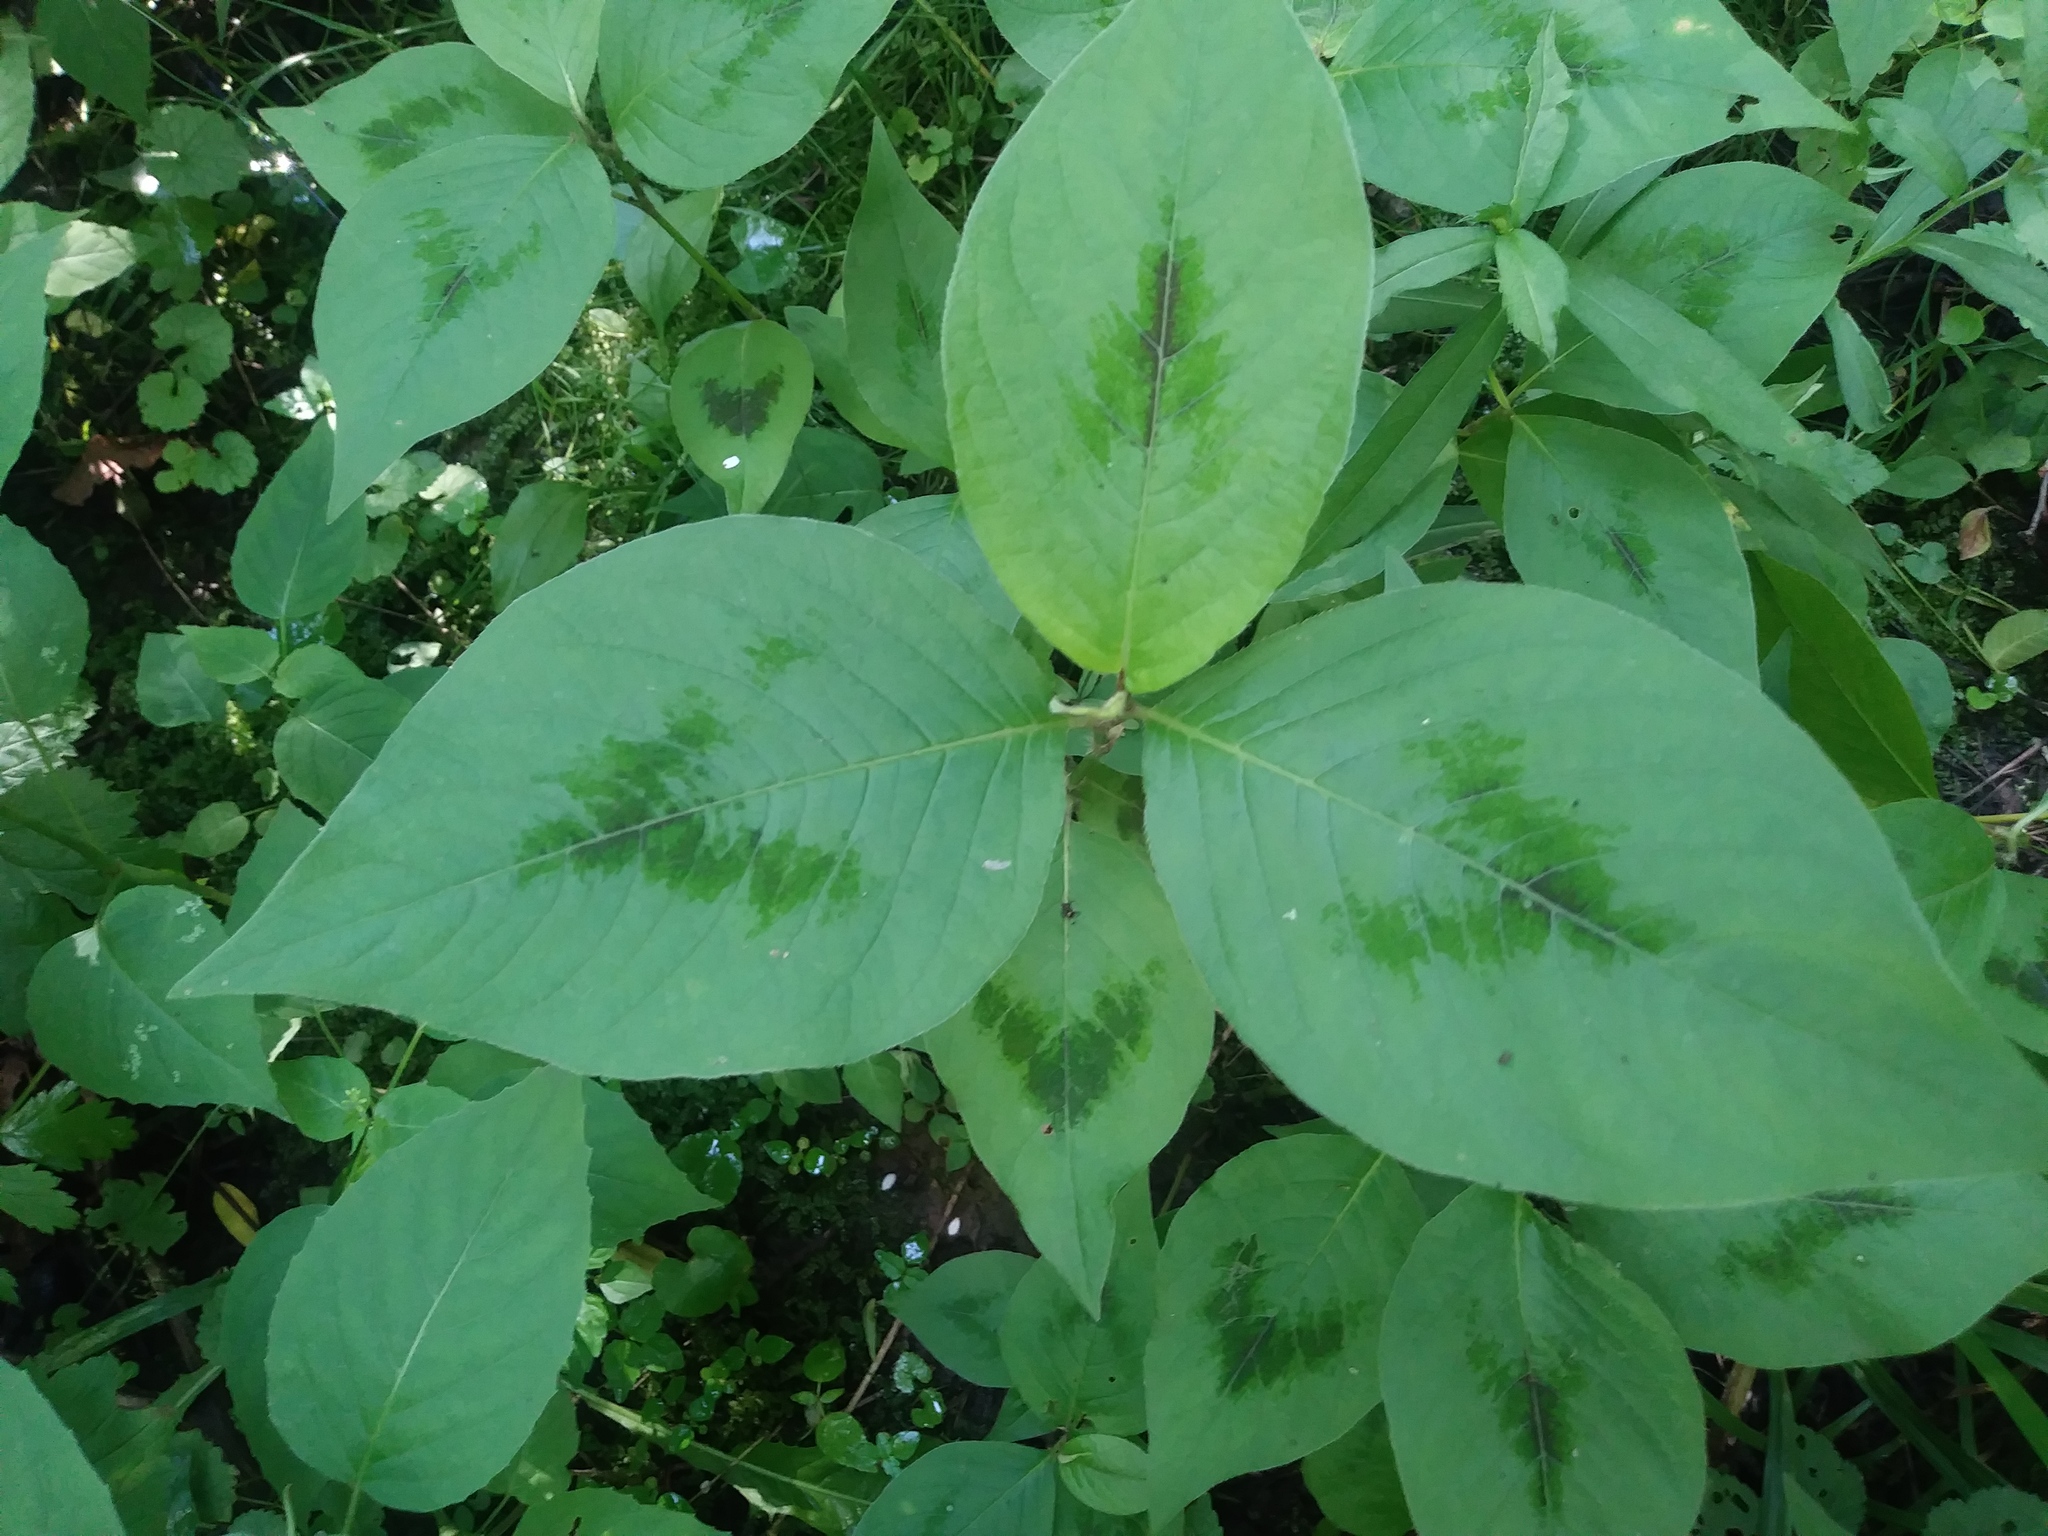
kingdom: Plantae
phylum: Tracheophyta
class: Magnoliopsida
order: Caryophyllales
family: Polygonaceae
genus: Persicaria
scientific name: Persicaria virginiana
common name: Jumpseed
